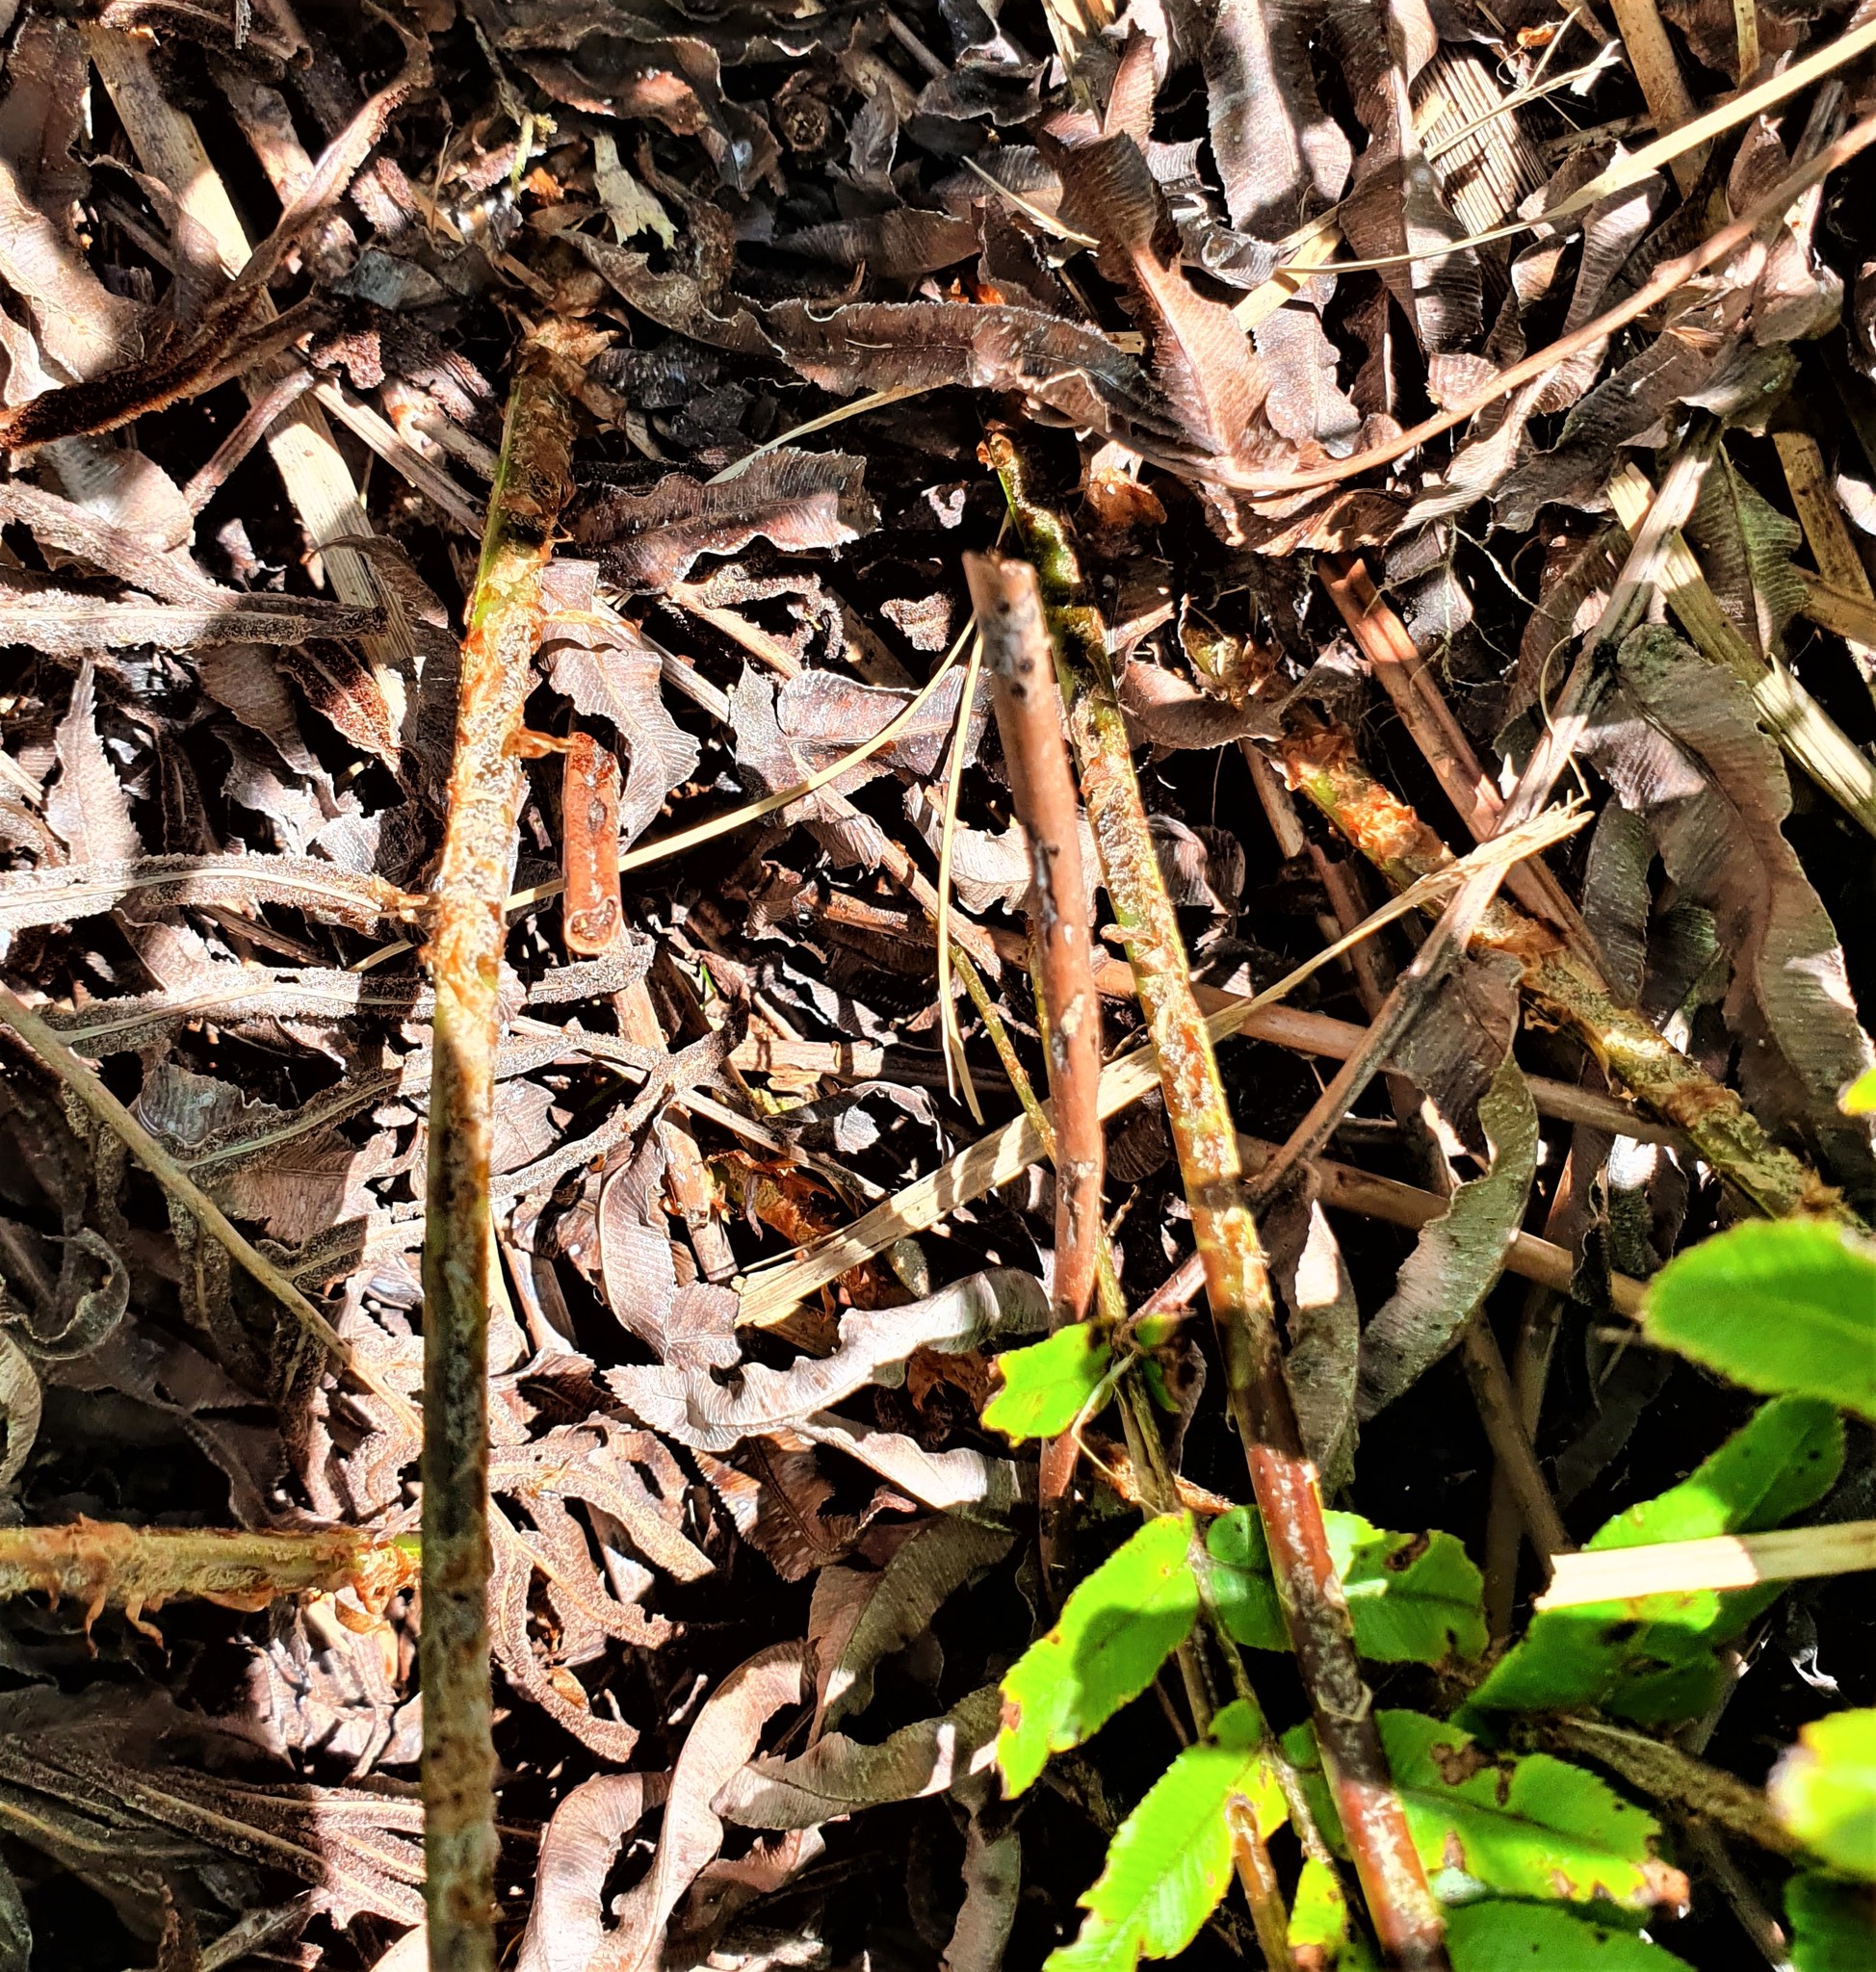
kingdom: Plantae
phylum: Tracheophyta
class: Polypodiopsida
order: Polypodiales
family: Blechnaceae
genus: Parablechnum
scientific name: Parablechnum novae-zelandiae
